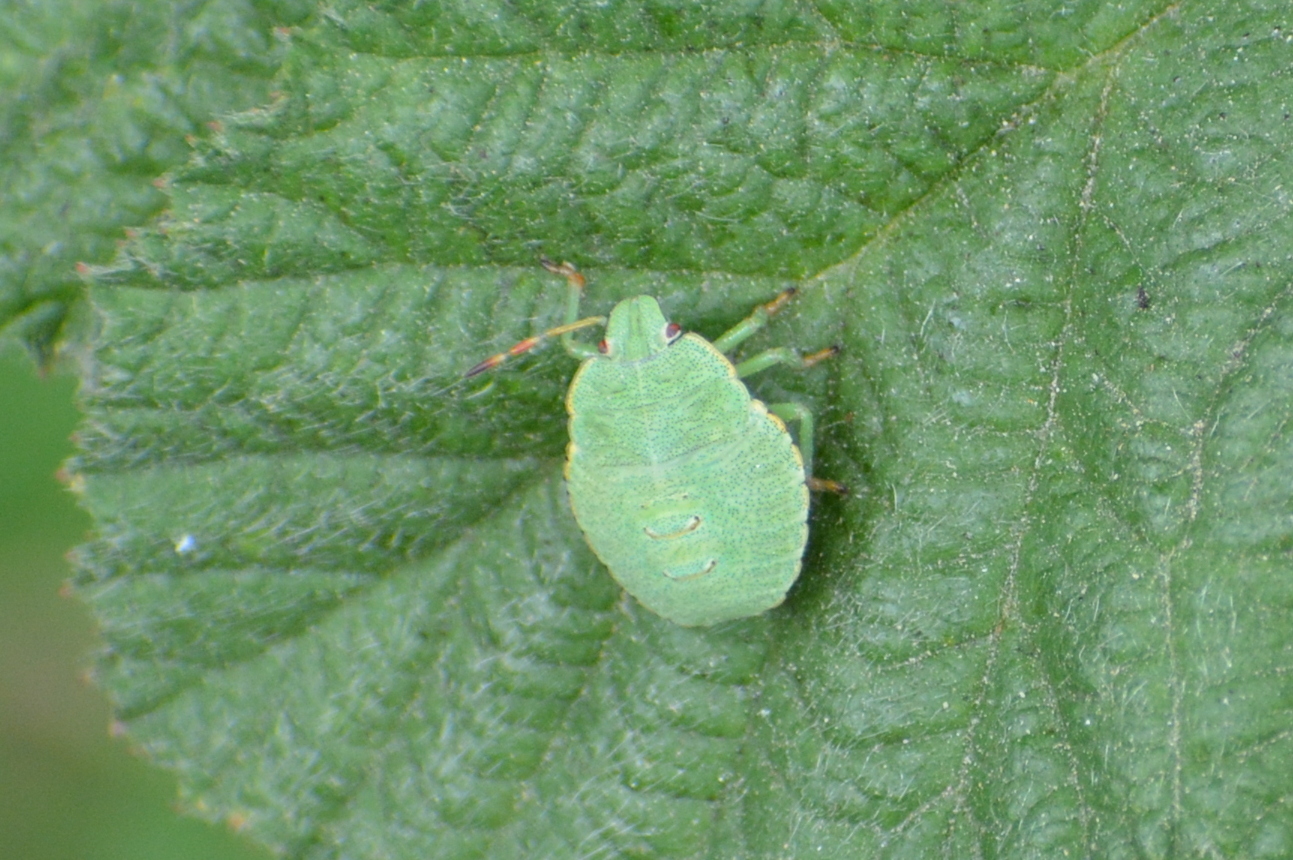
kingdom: Animalia
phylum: Arthropoda
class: Insecta
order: Hemiptera
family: Pentatomidae
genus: Palomena
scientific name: Palomena prasina
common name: Green shieldbug
